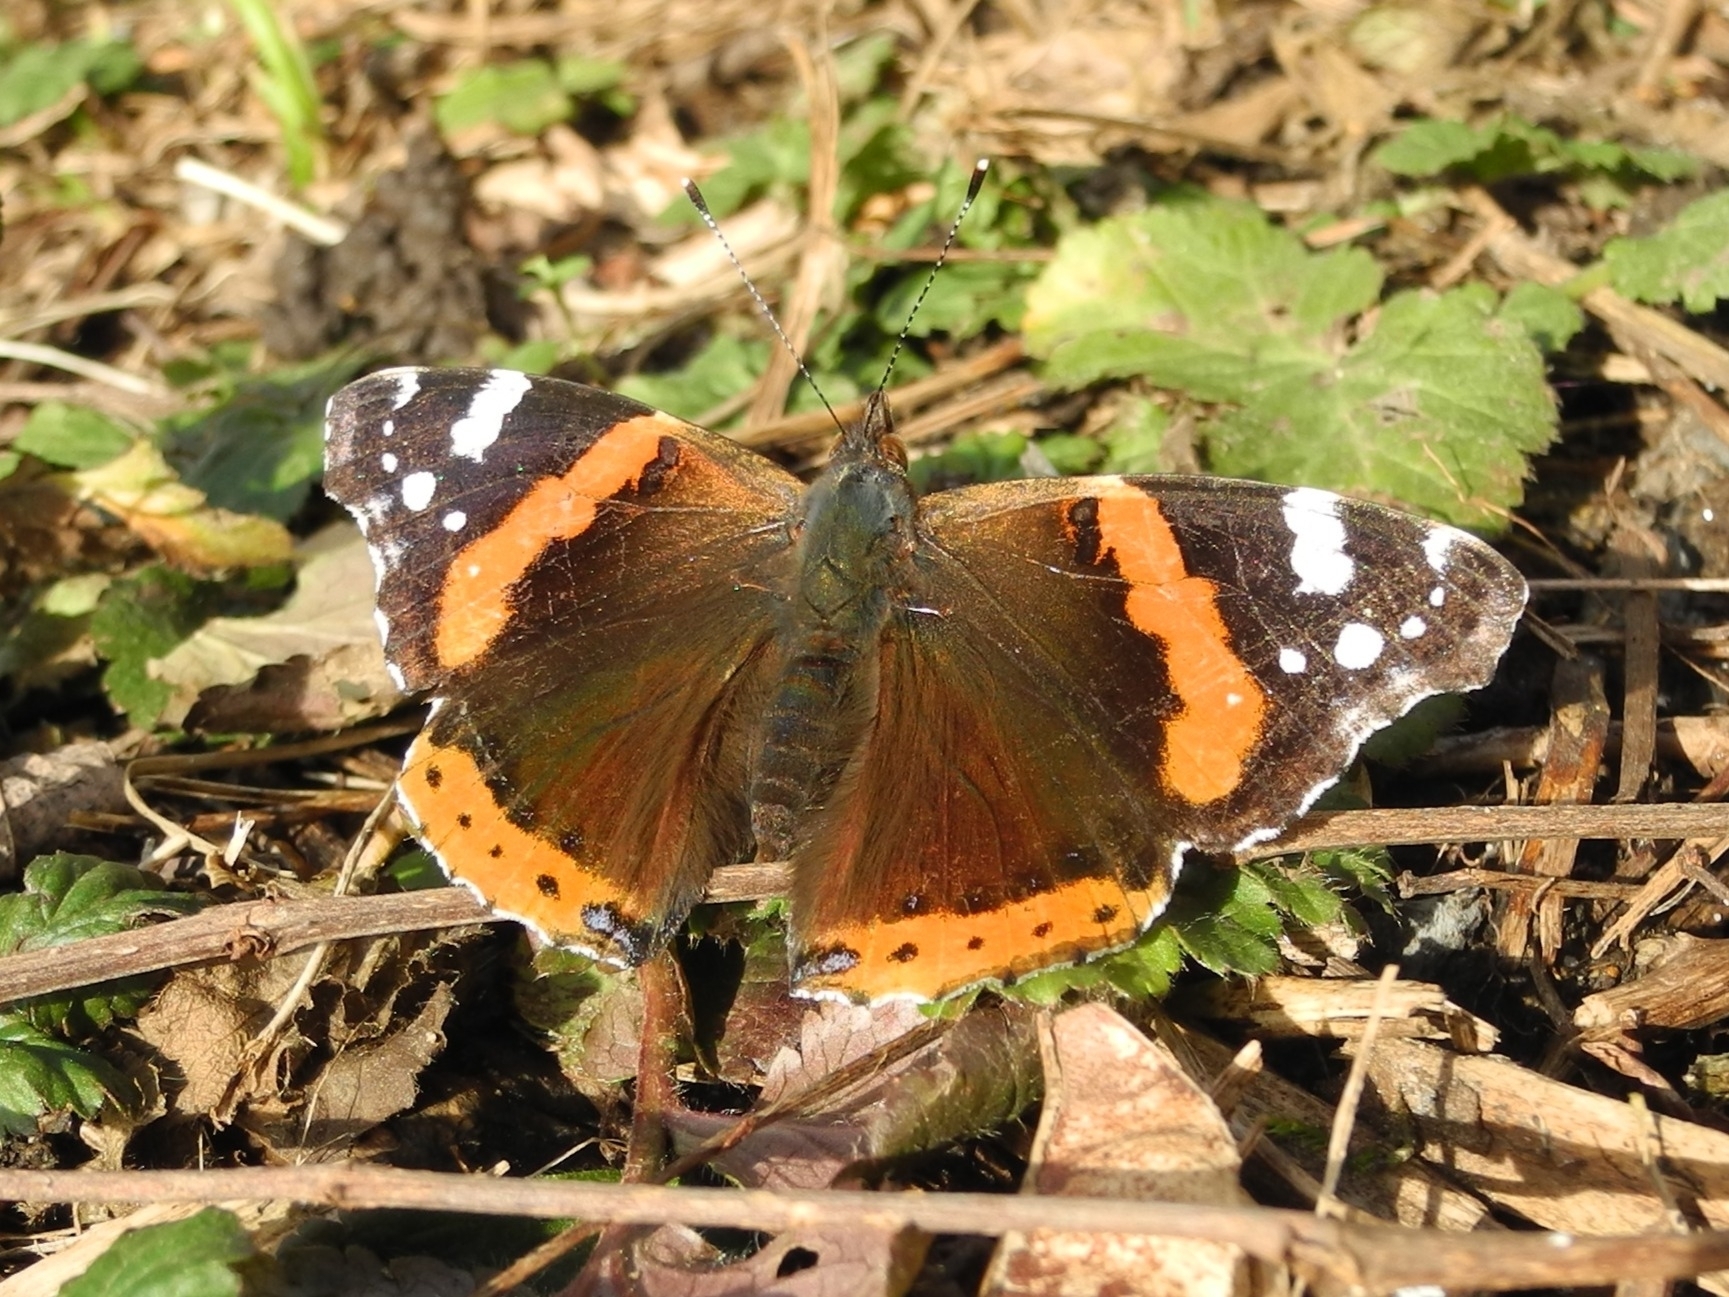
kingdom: Animalia
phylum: Arthropoda
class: Insecta
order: Lepidoptera
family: Nymphalidae
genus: Vanessa
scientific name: Vanessa atalanta
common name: Red admiral
